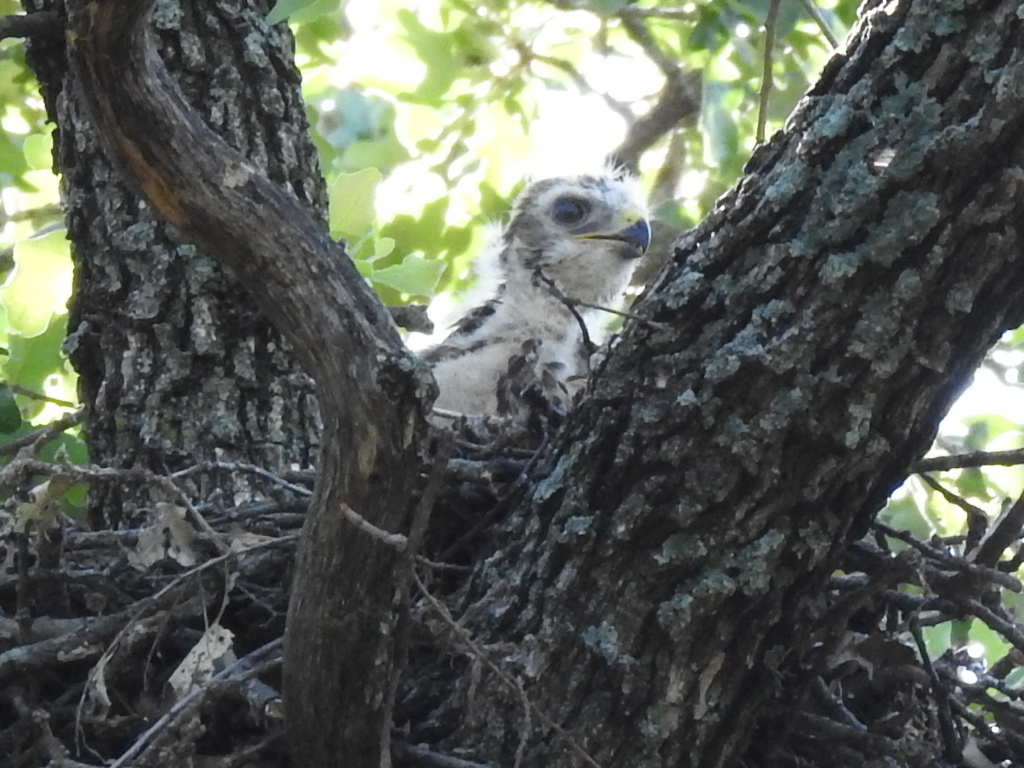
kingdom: Animalia
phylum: Chordata
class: Aves
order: Accipitriformes
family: Accipitridae
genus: Buteo
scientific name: Buteo lineatus
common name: Red-shouldered hawk
